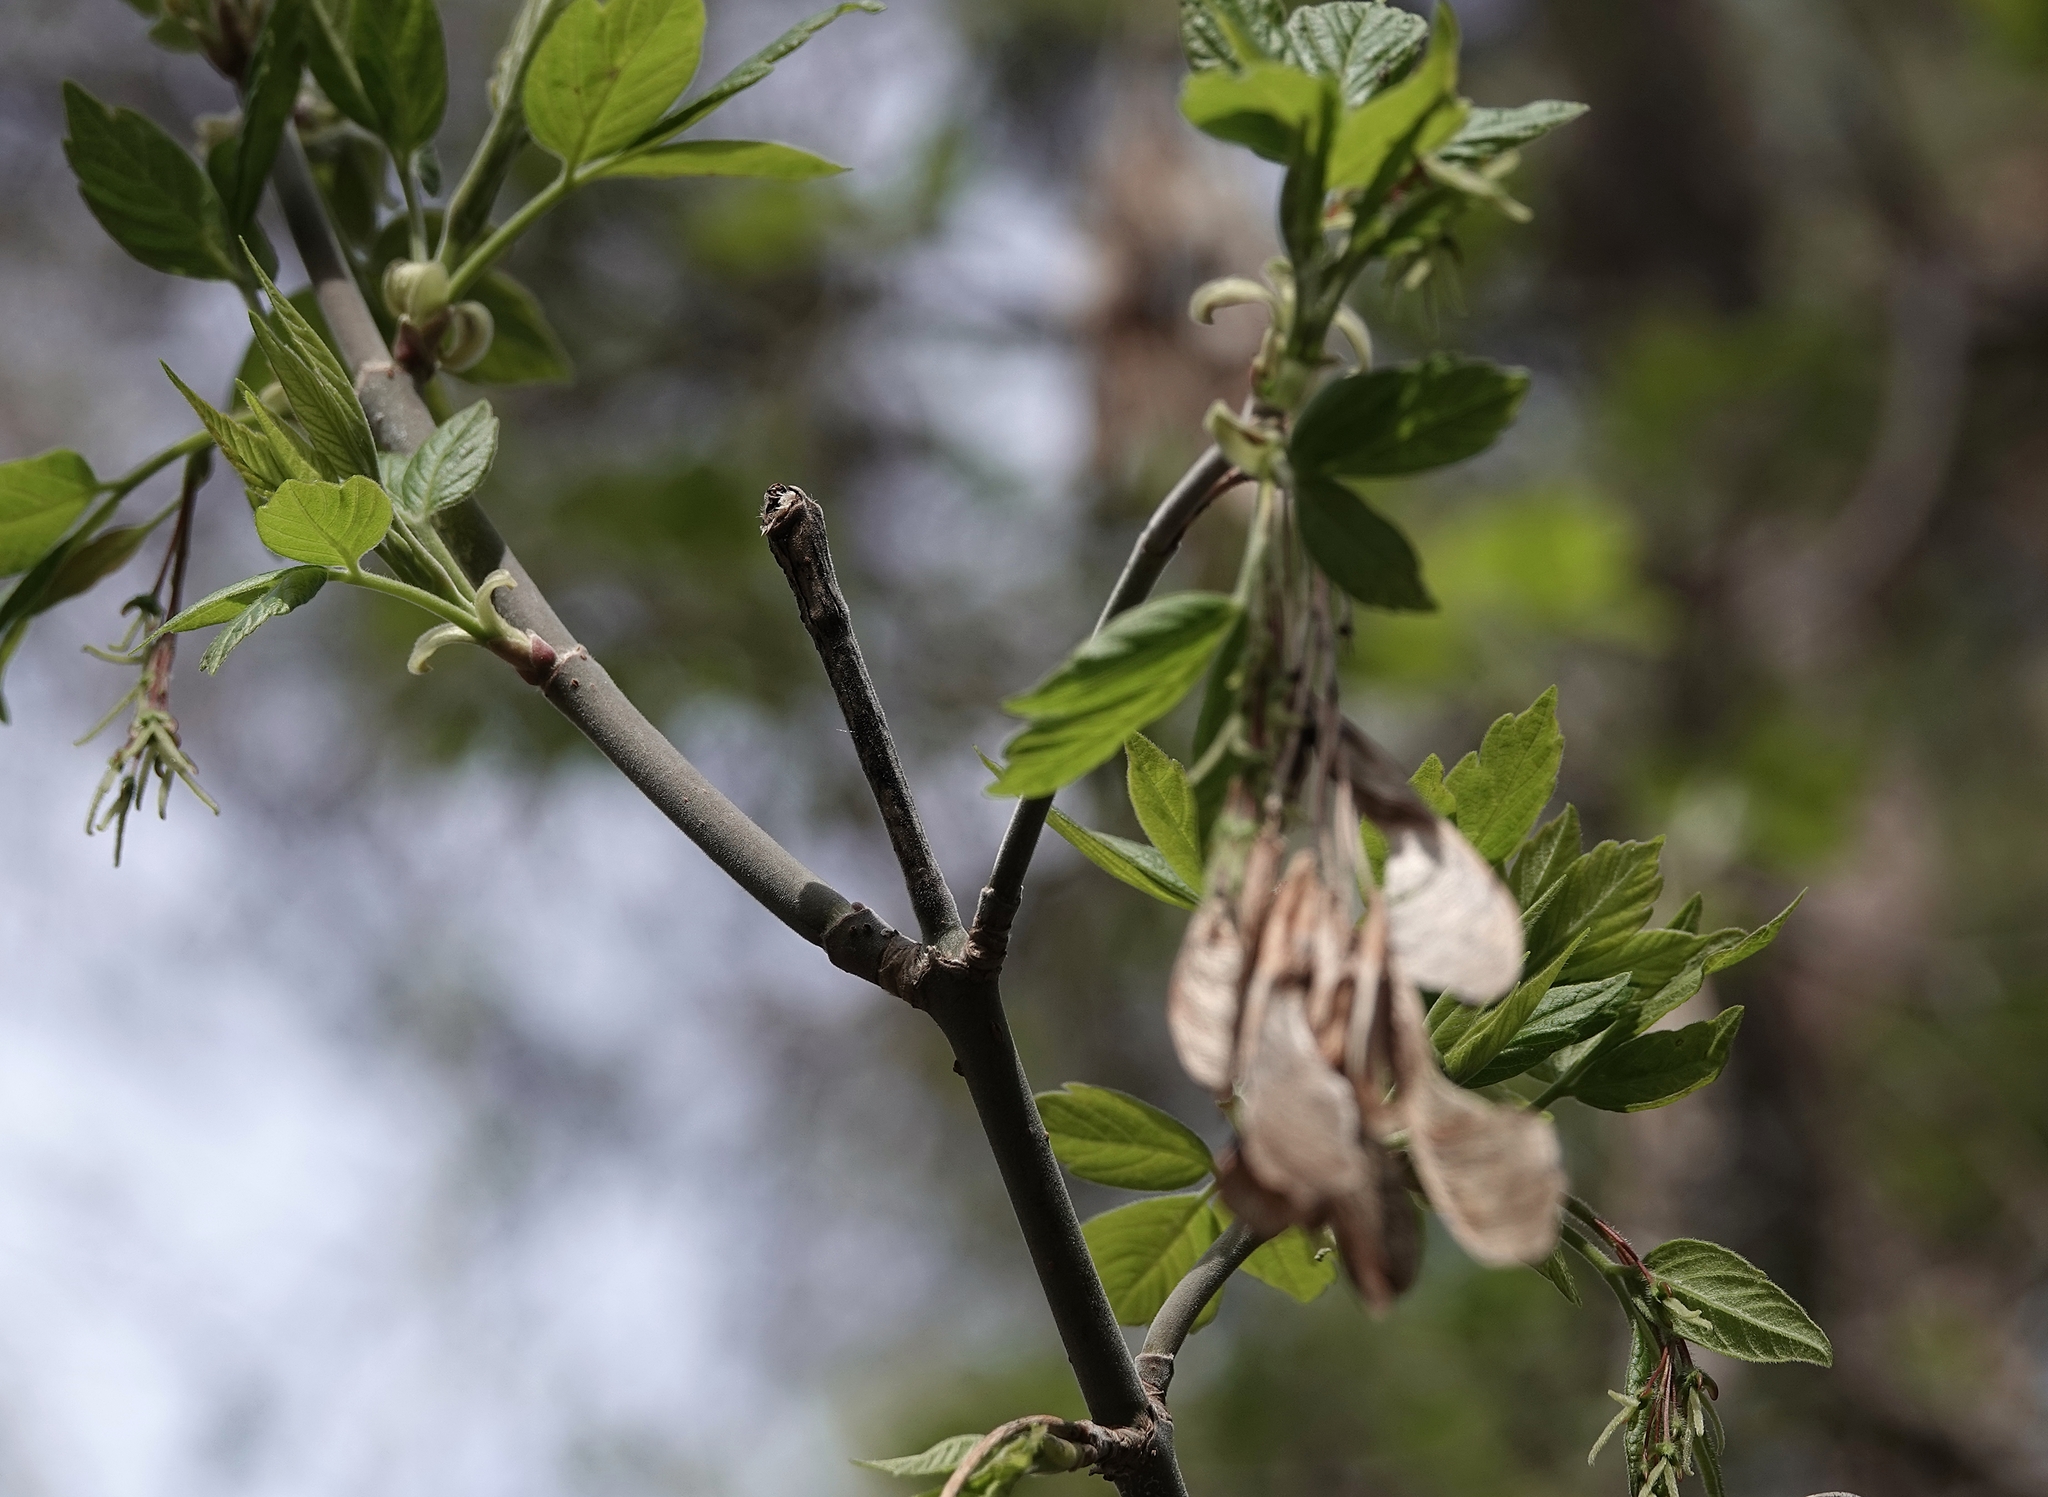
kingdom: Plantae
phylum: Tracheophyta
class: Magnoliopsida
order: Sapindales
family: Sapindaceae
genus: Acer
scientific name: Acer negundo
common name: Ashleaf maple
